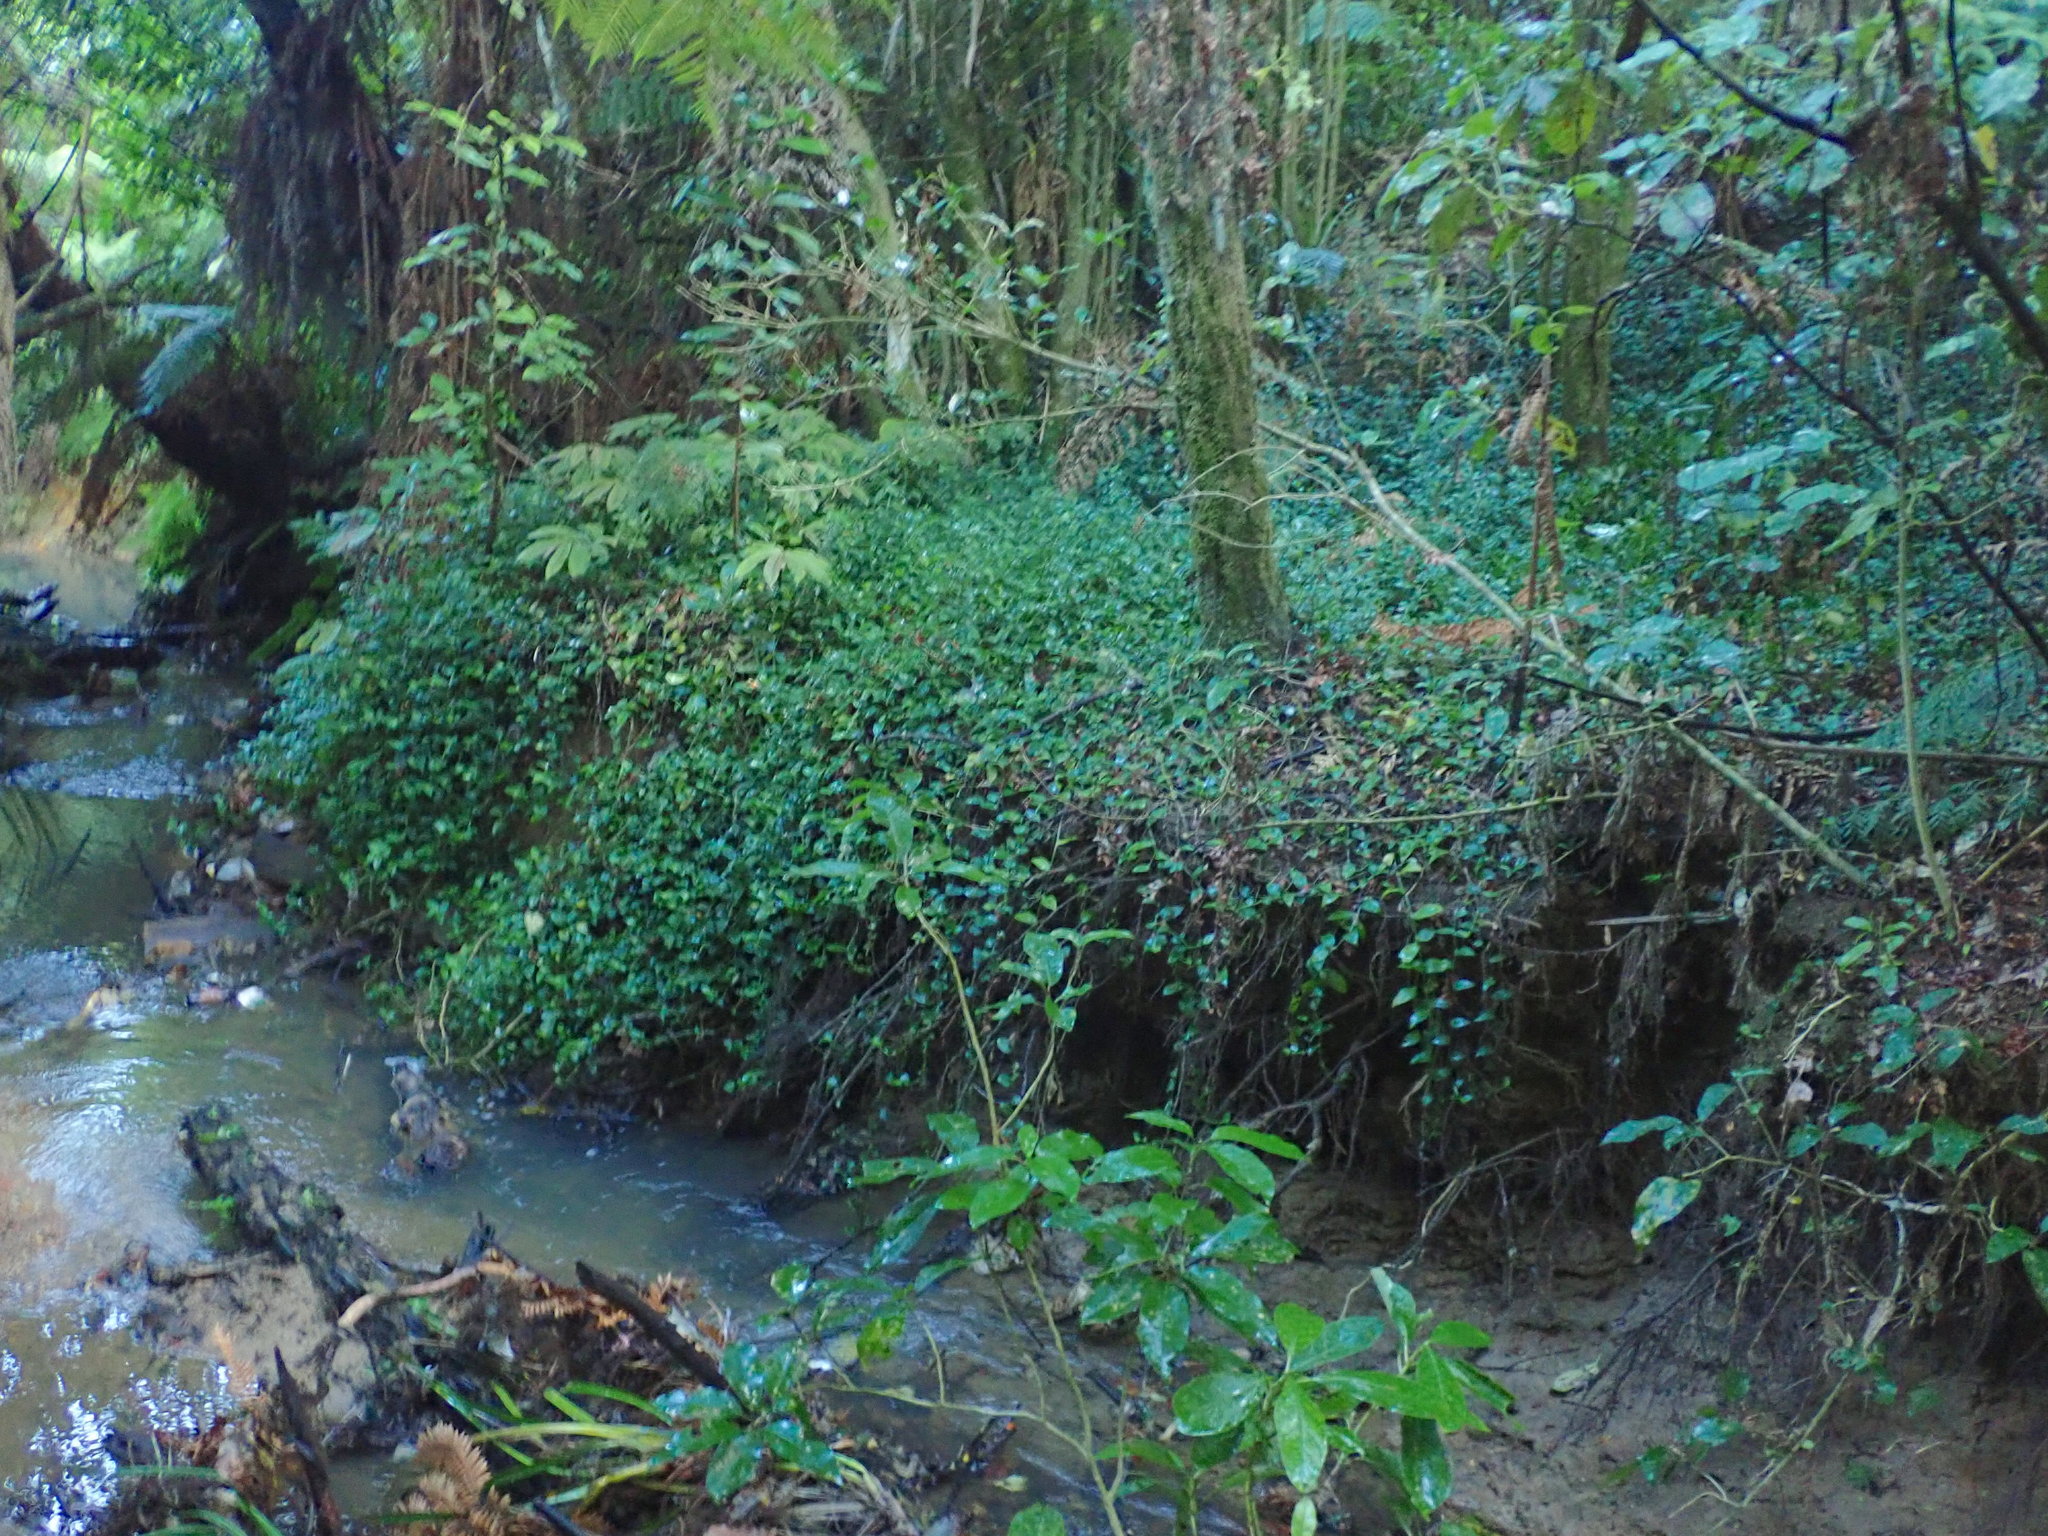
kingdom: Plantae
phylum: Tracheophyta
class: Liliopsida
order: Commelinales
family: Commelinaceae
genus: Tradescantia
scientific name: Tradescantia fluminensis
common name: Wandering-jew
